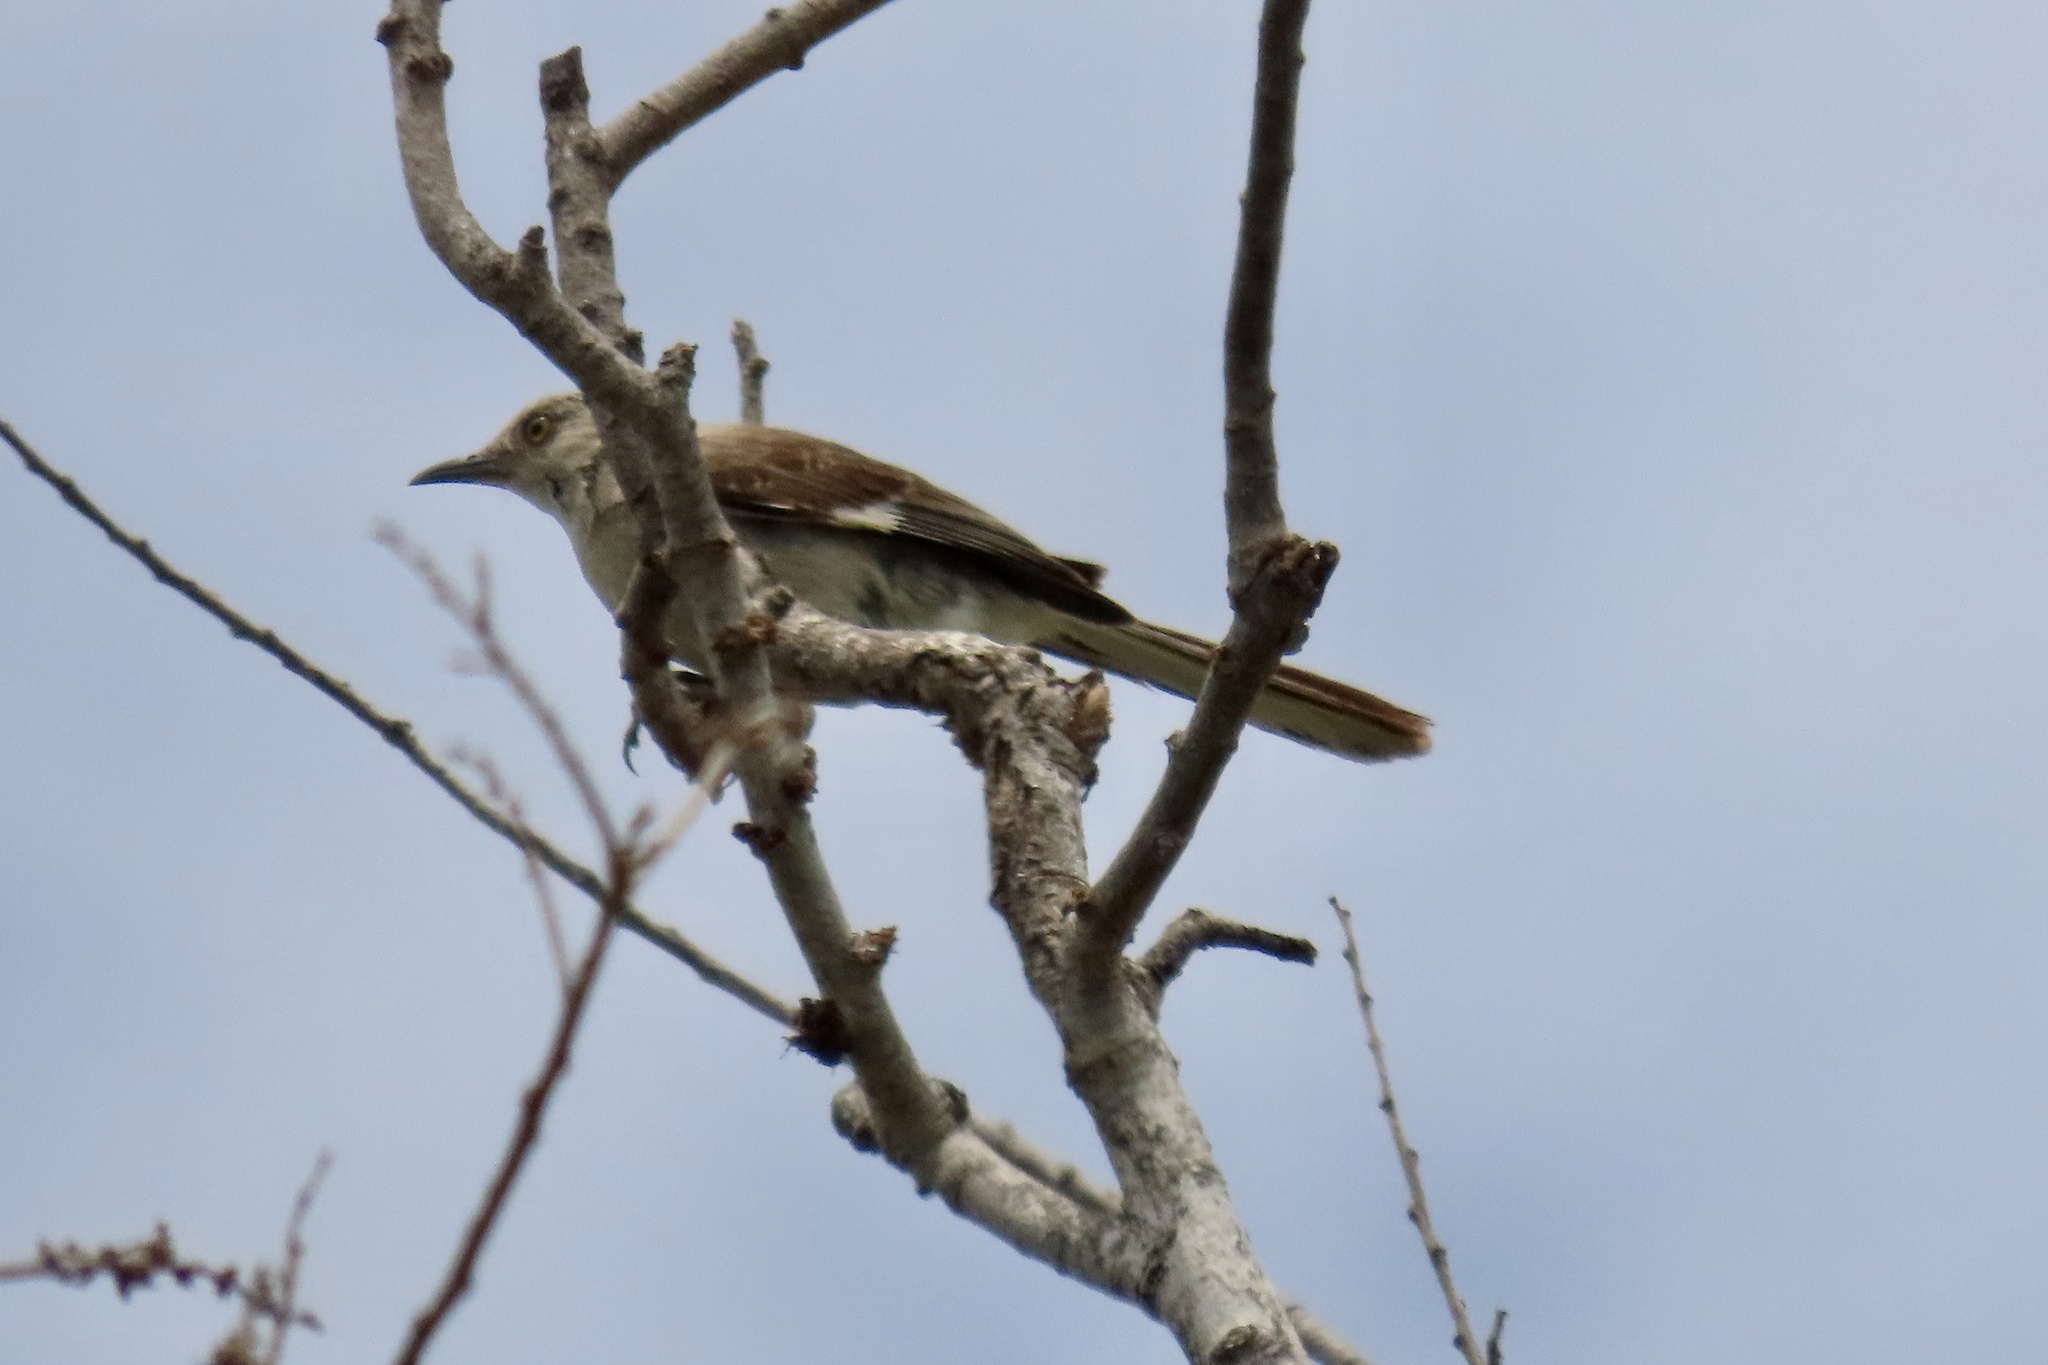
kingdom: Animalia
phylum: Chordata
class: Aves
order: Passeriformes
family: Mimidae
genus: Mimus
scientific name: Mimus polyglottos
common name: Northern mockingbird
